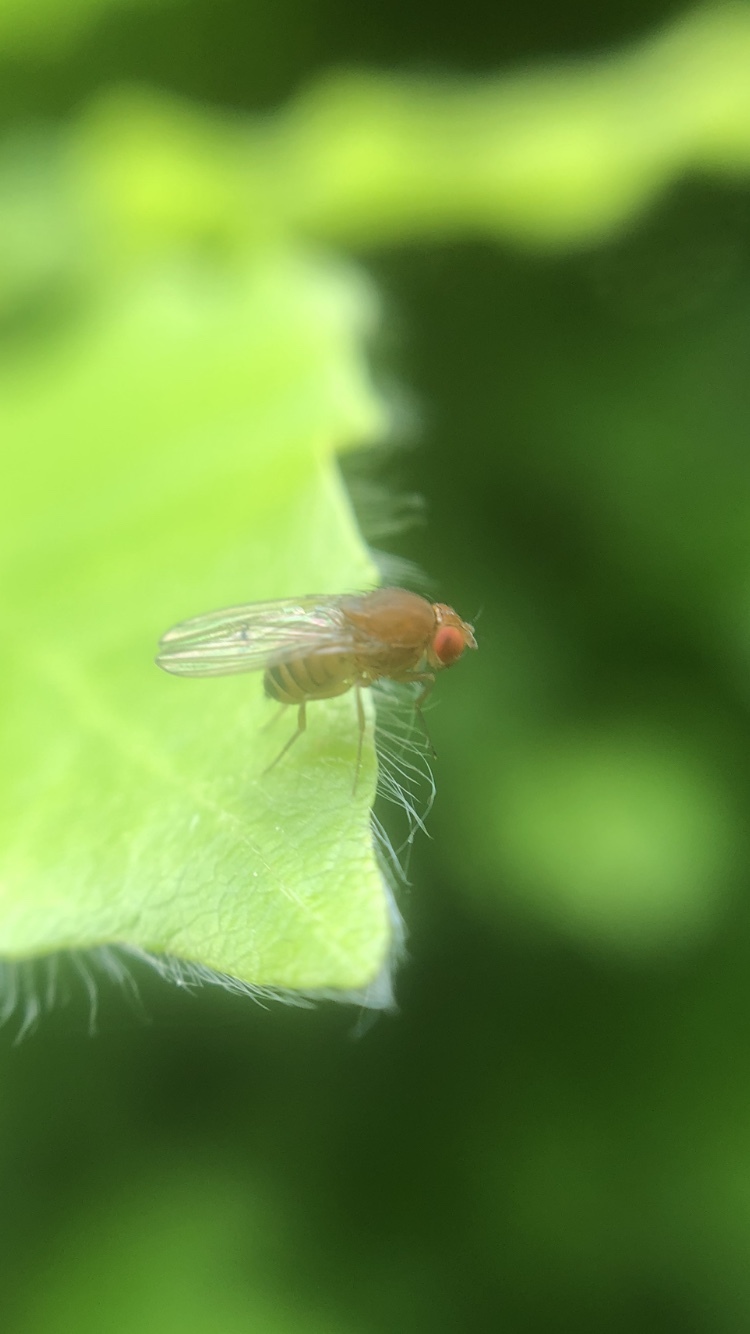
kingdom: Animalia
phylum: Arthropoda
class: Insecta
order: Diptera
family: Drosophilidae
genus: Drosophila
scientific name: Drosophila immigrans
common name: Pomace fly
